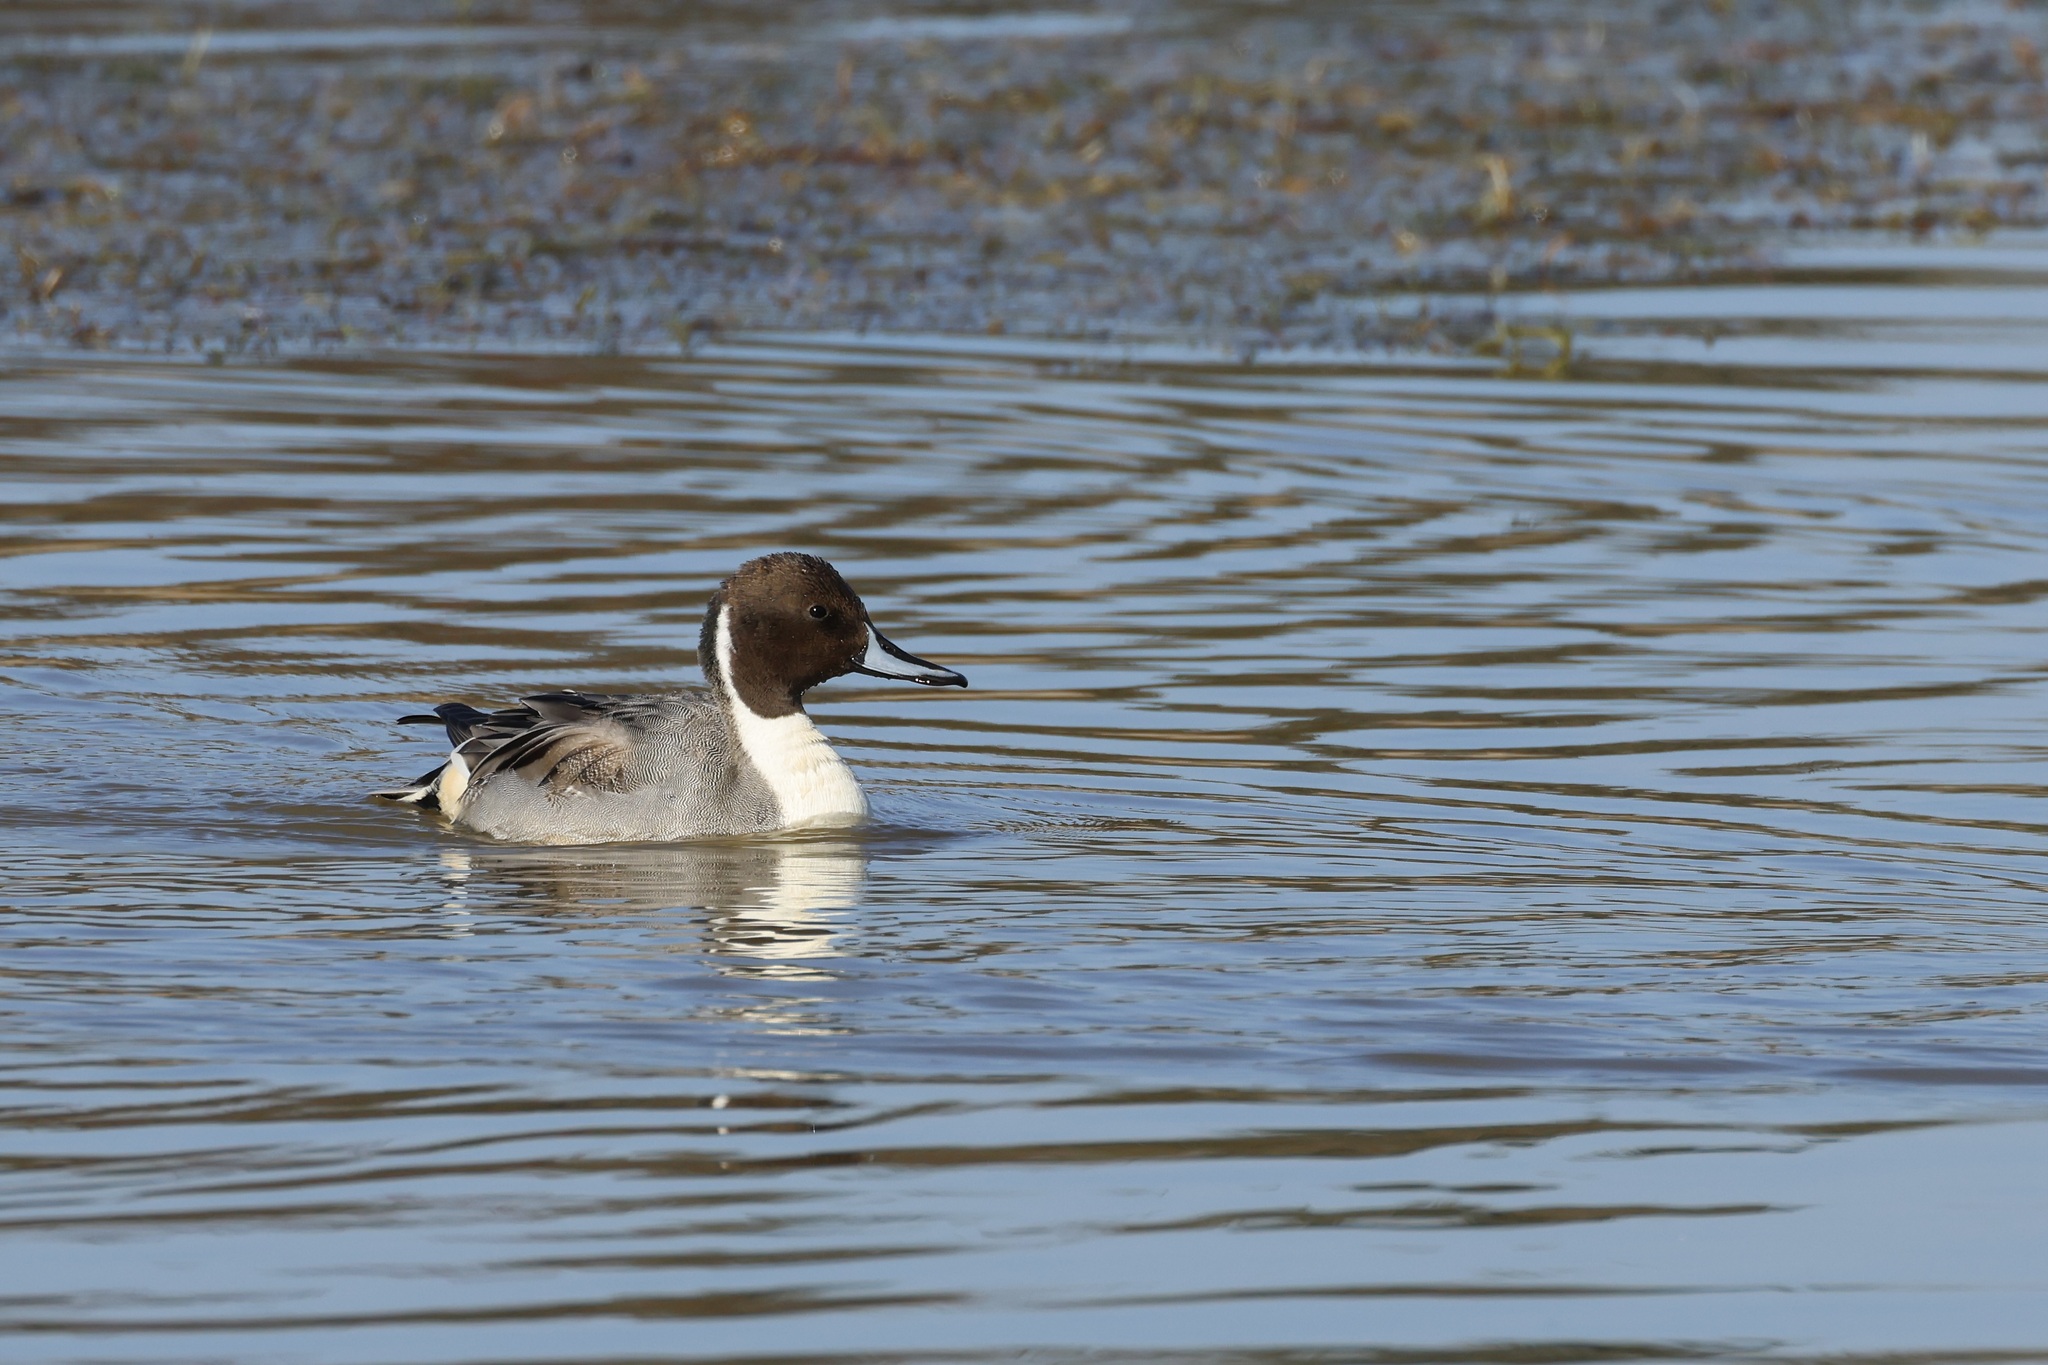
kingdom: Animalia
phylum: Chordata
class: Aves
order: Anseriformes
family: Anatidae
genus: Anas
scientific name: Anas acuta
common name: Northern pintail
